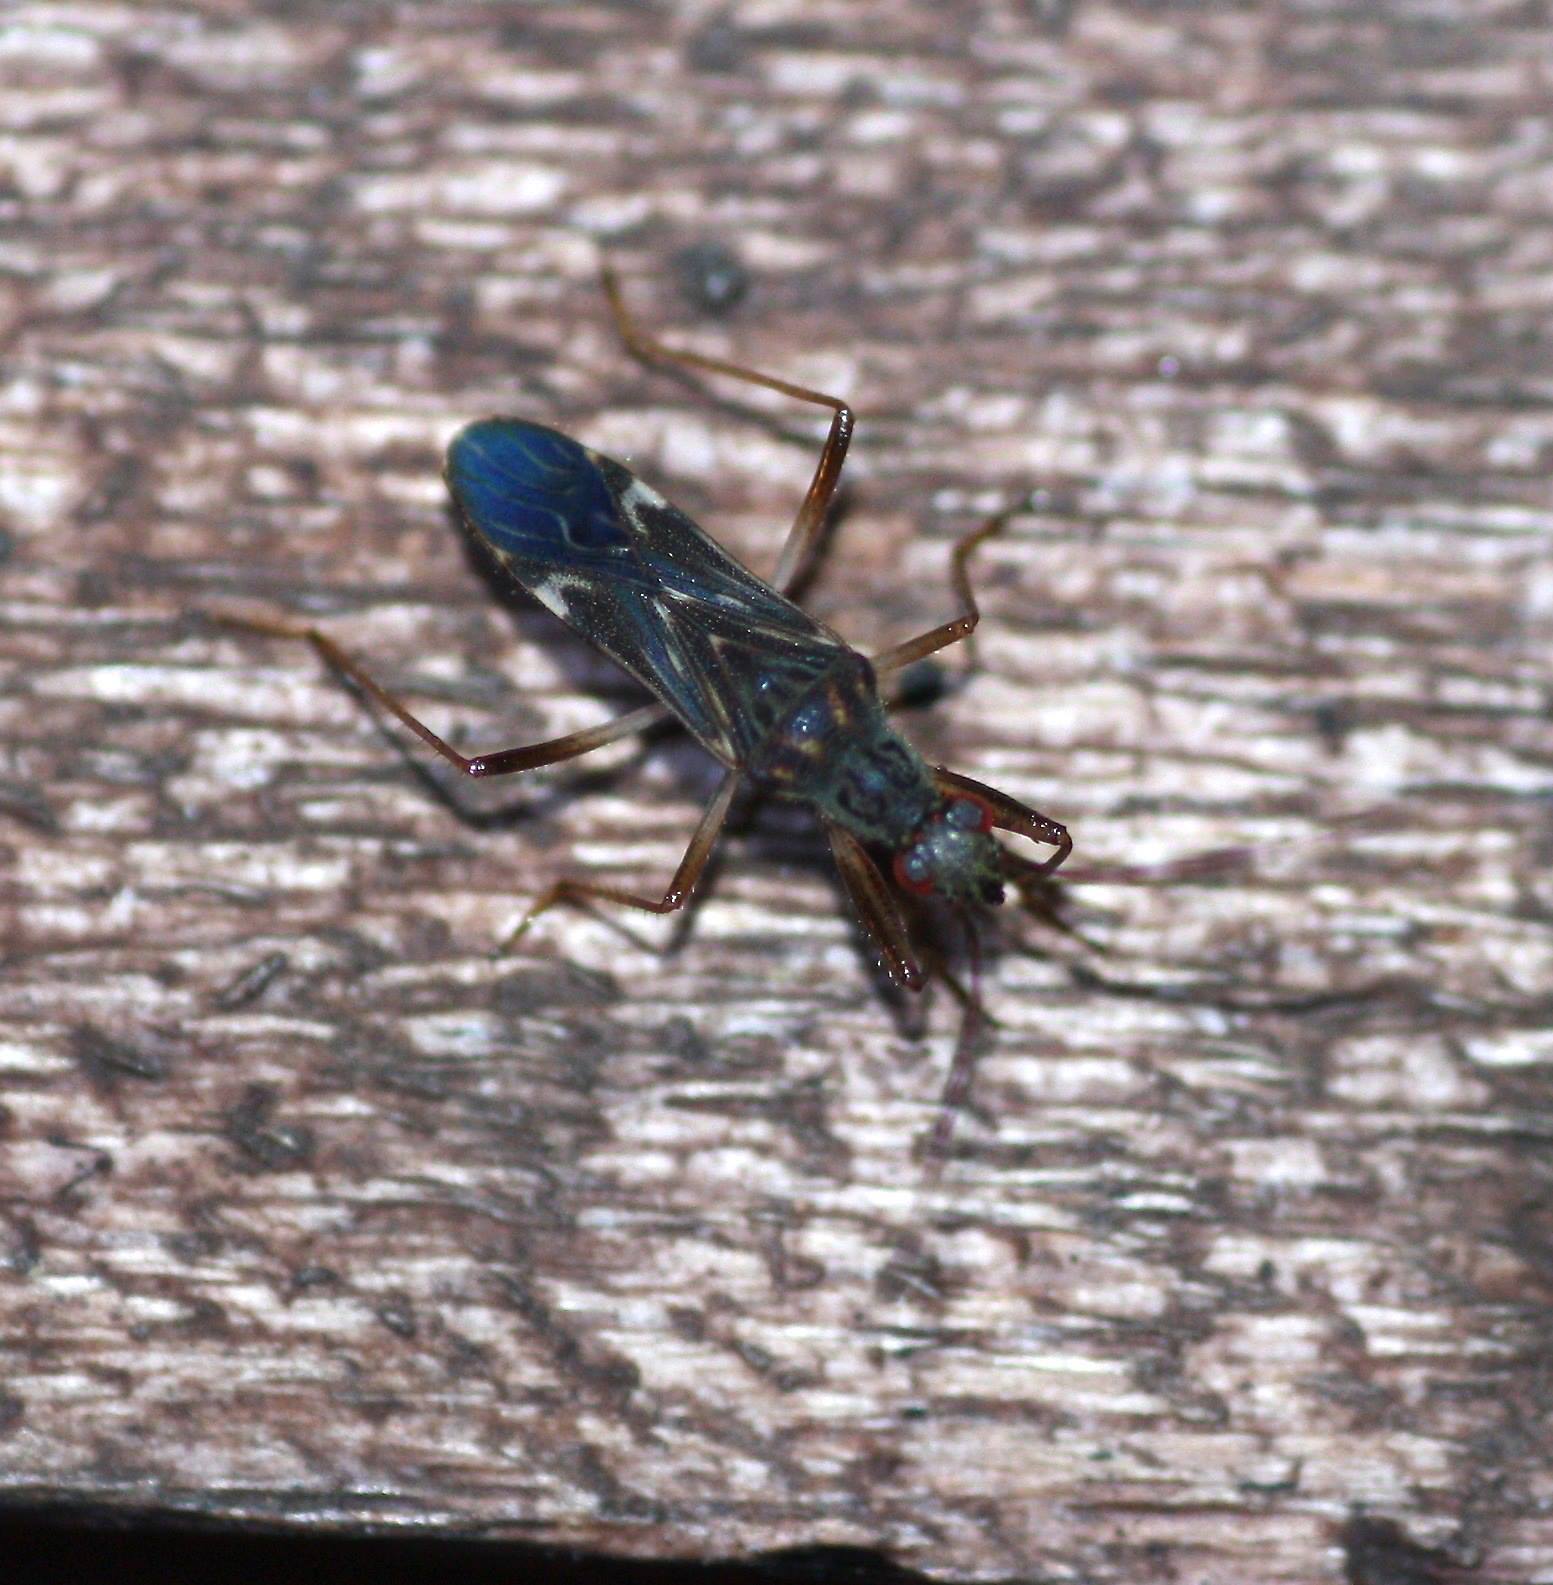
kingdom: Animalia
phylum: Arthropoda
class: Insecta
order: Hemiptera
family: Rhyparochromidae
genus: Neopamera
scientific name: Neopamera neotropicalis
